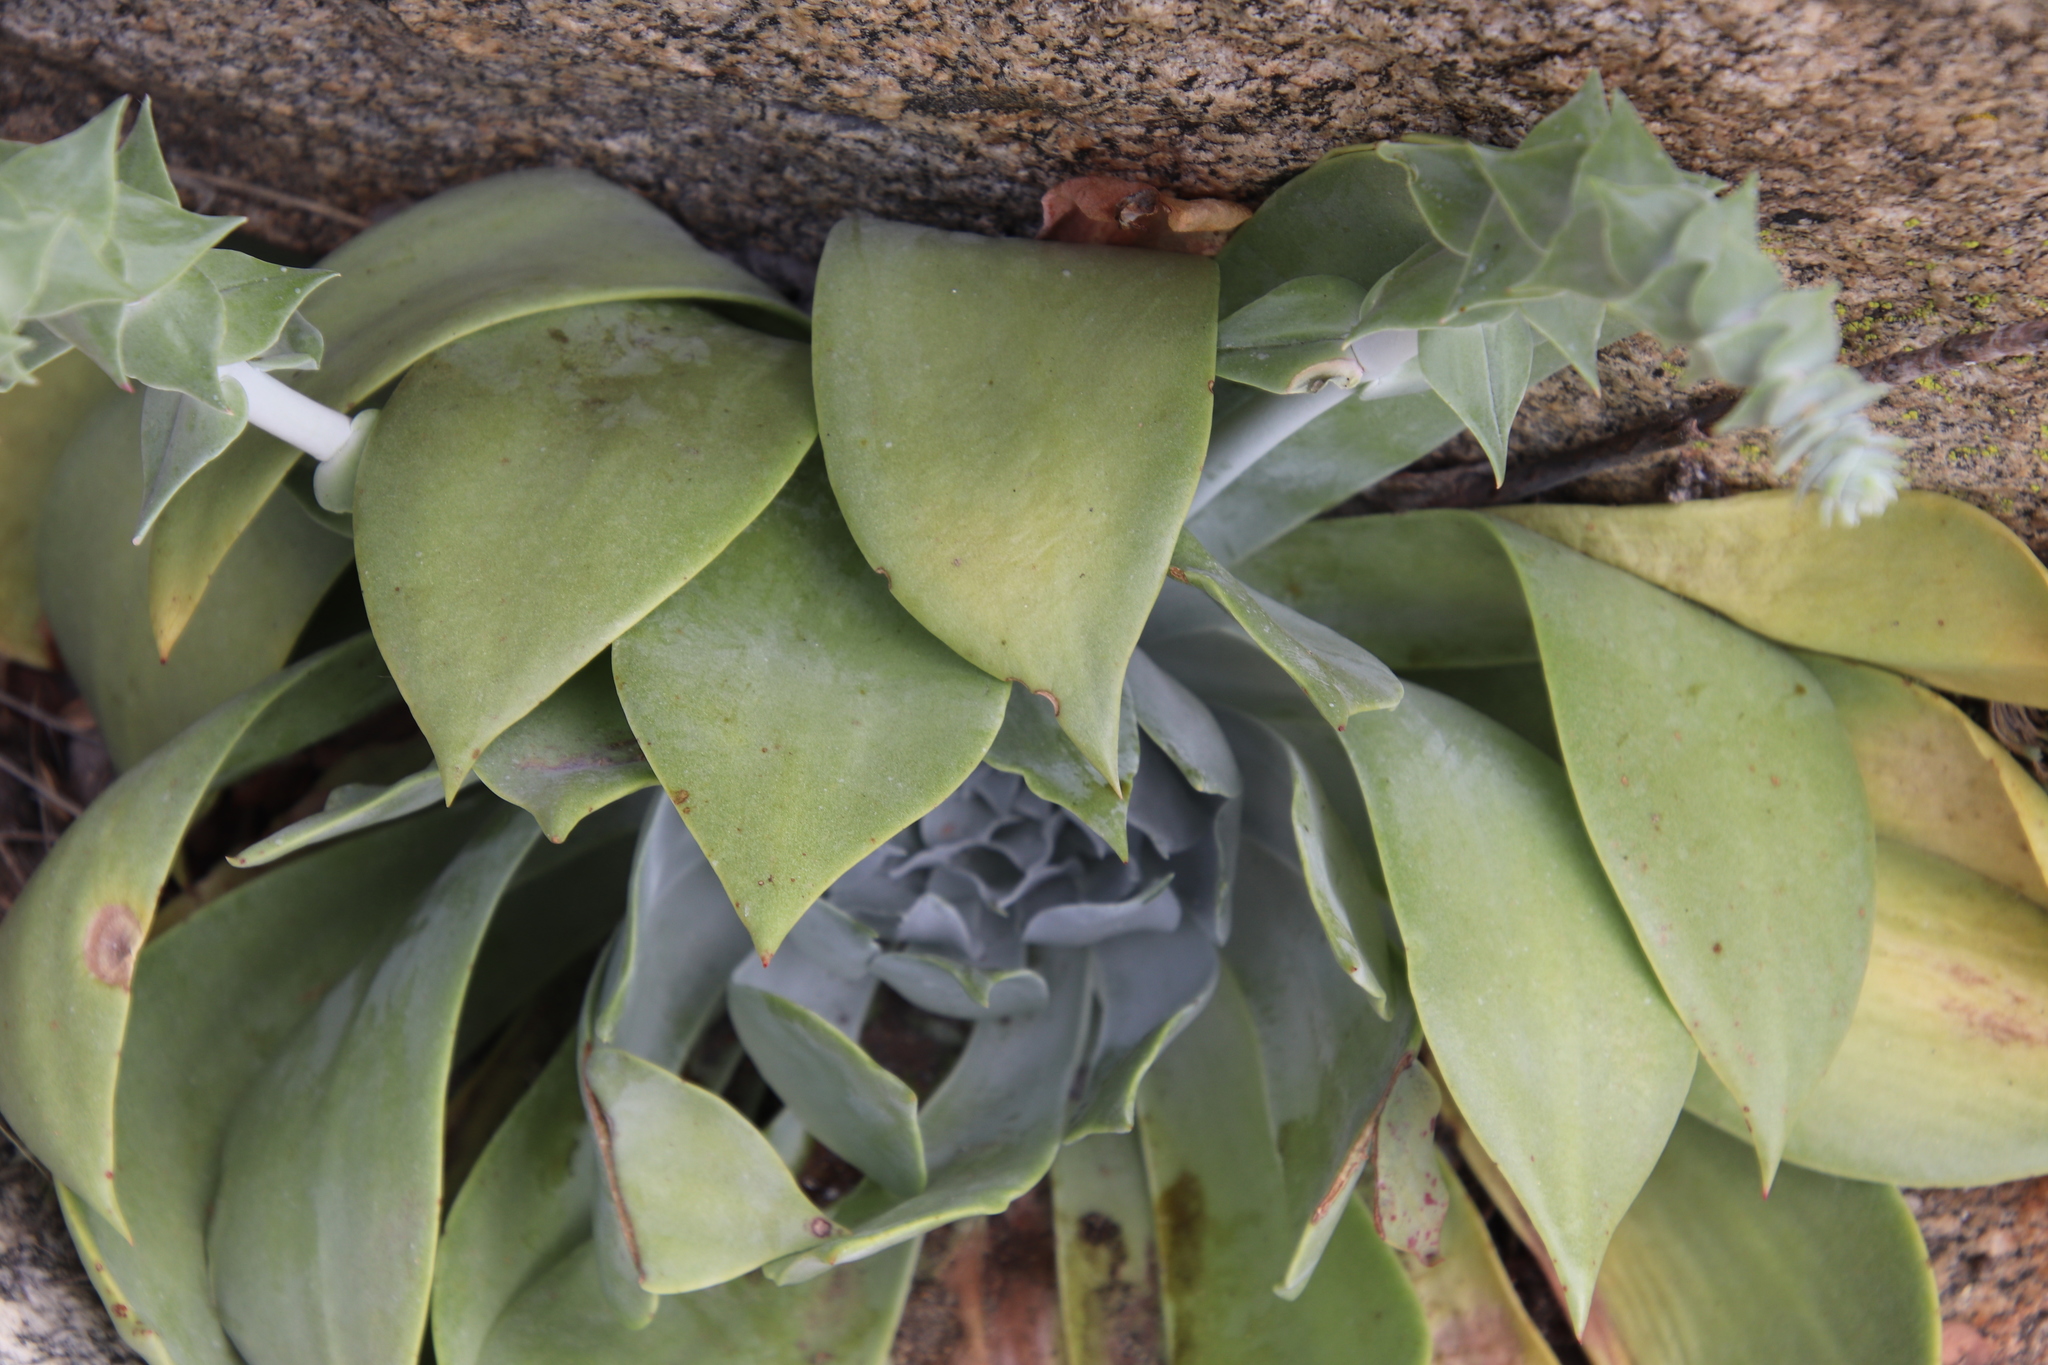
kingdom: Plantae
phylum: Tracheophyta
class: Magnoliopsida
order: Saxifragales
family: Crassulaceae
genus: Dudleya
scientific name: Dudleya pulverulenta
